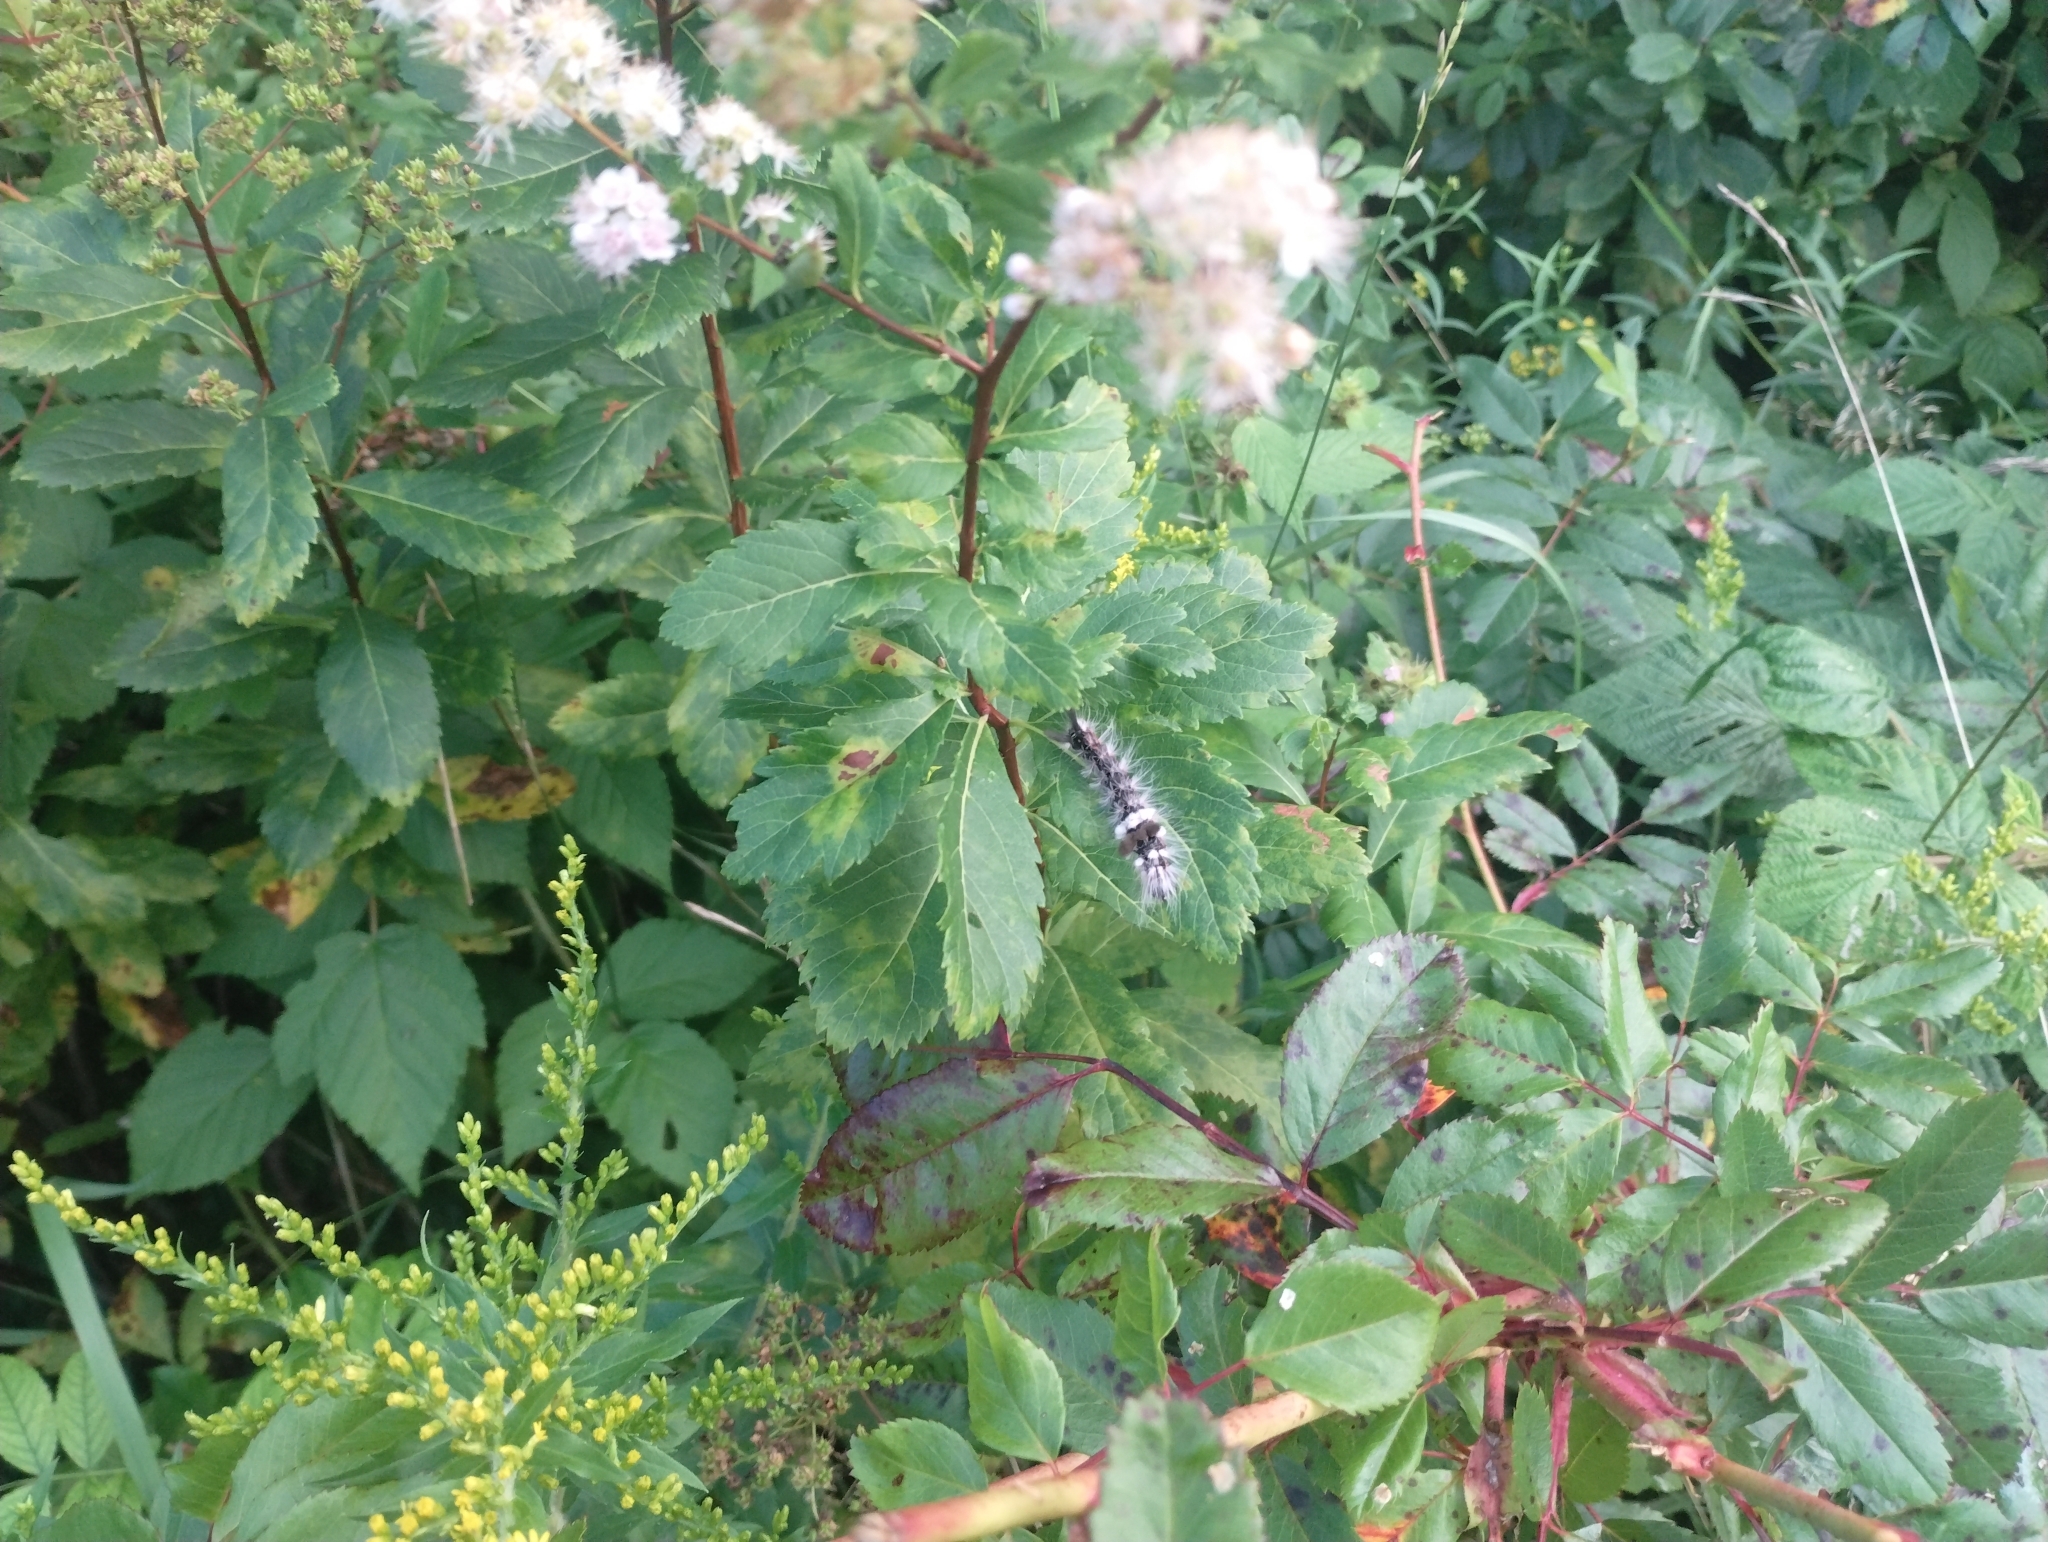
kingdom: Animalia
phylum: Arthropoda
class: Insecta
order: Lepidoptera
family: Noctuidae
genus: Acronicta
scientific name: Acronicta impleta
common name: Powdered dagger
